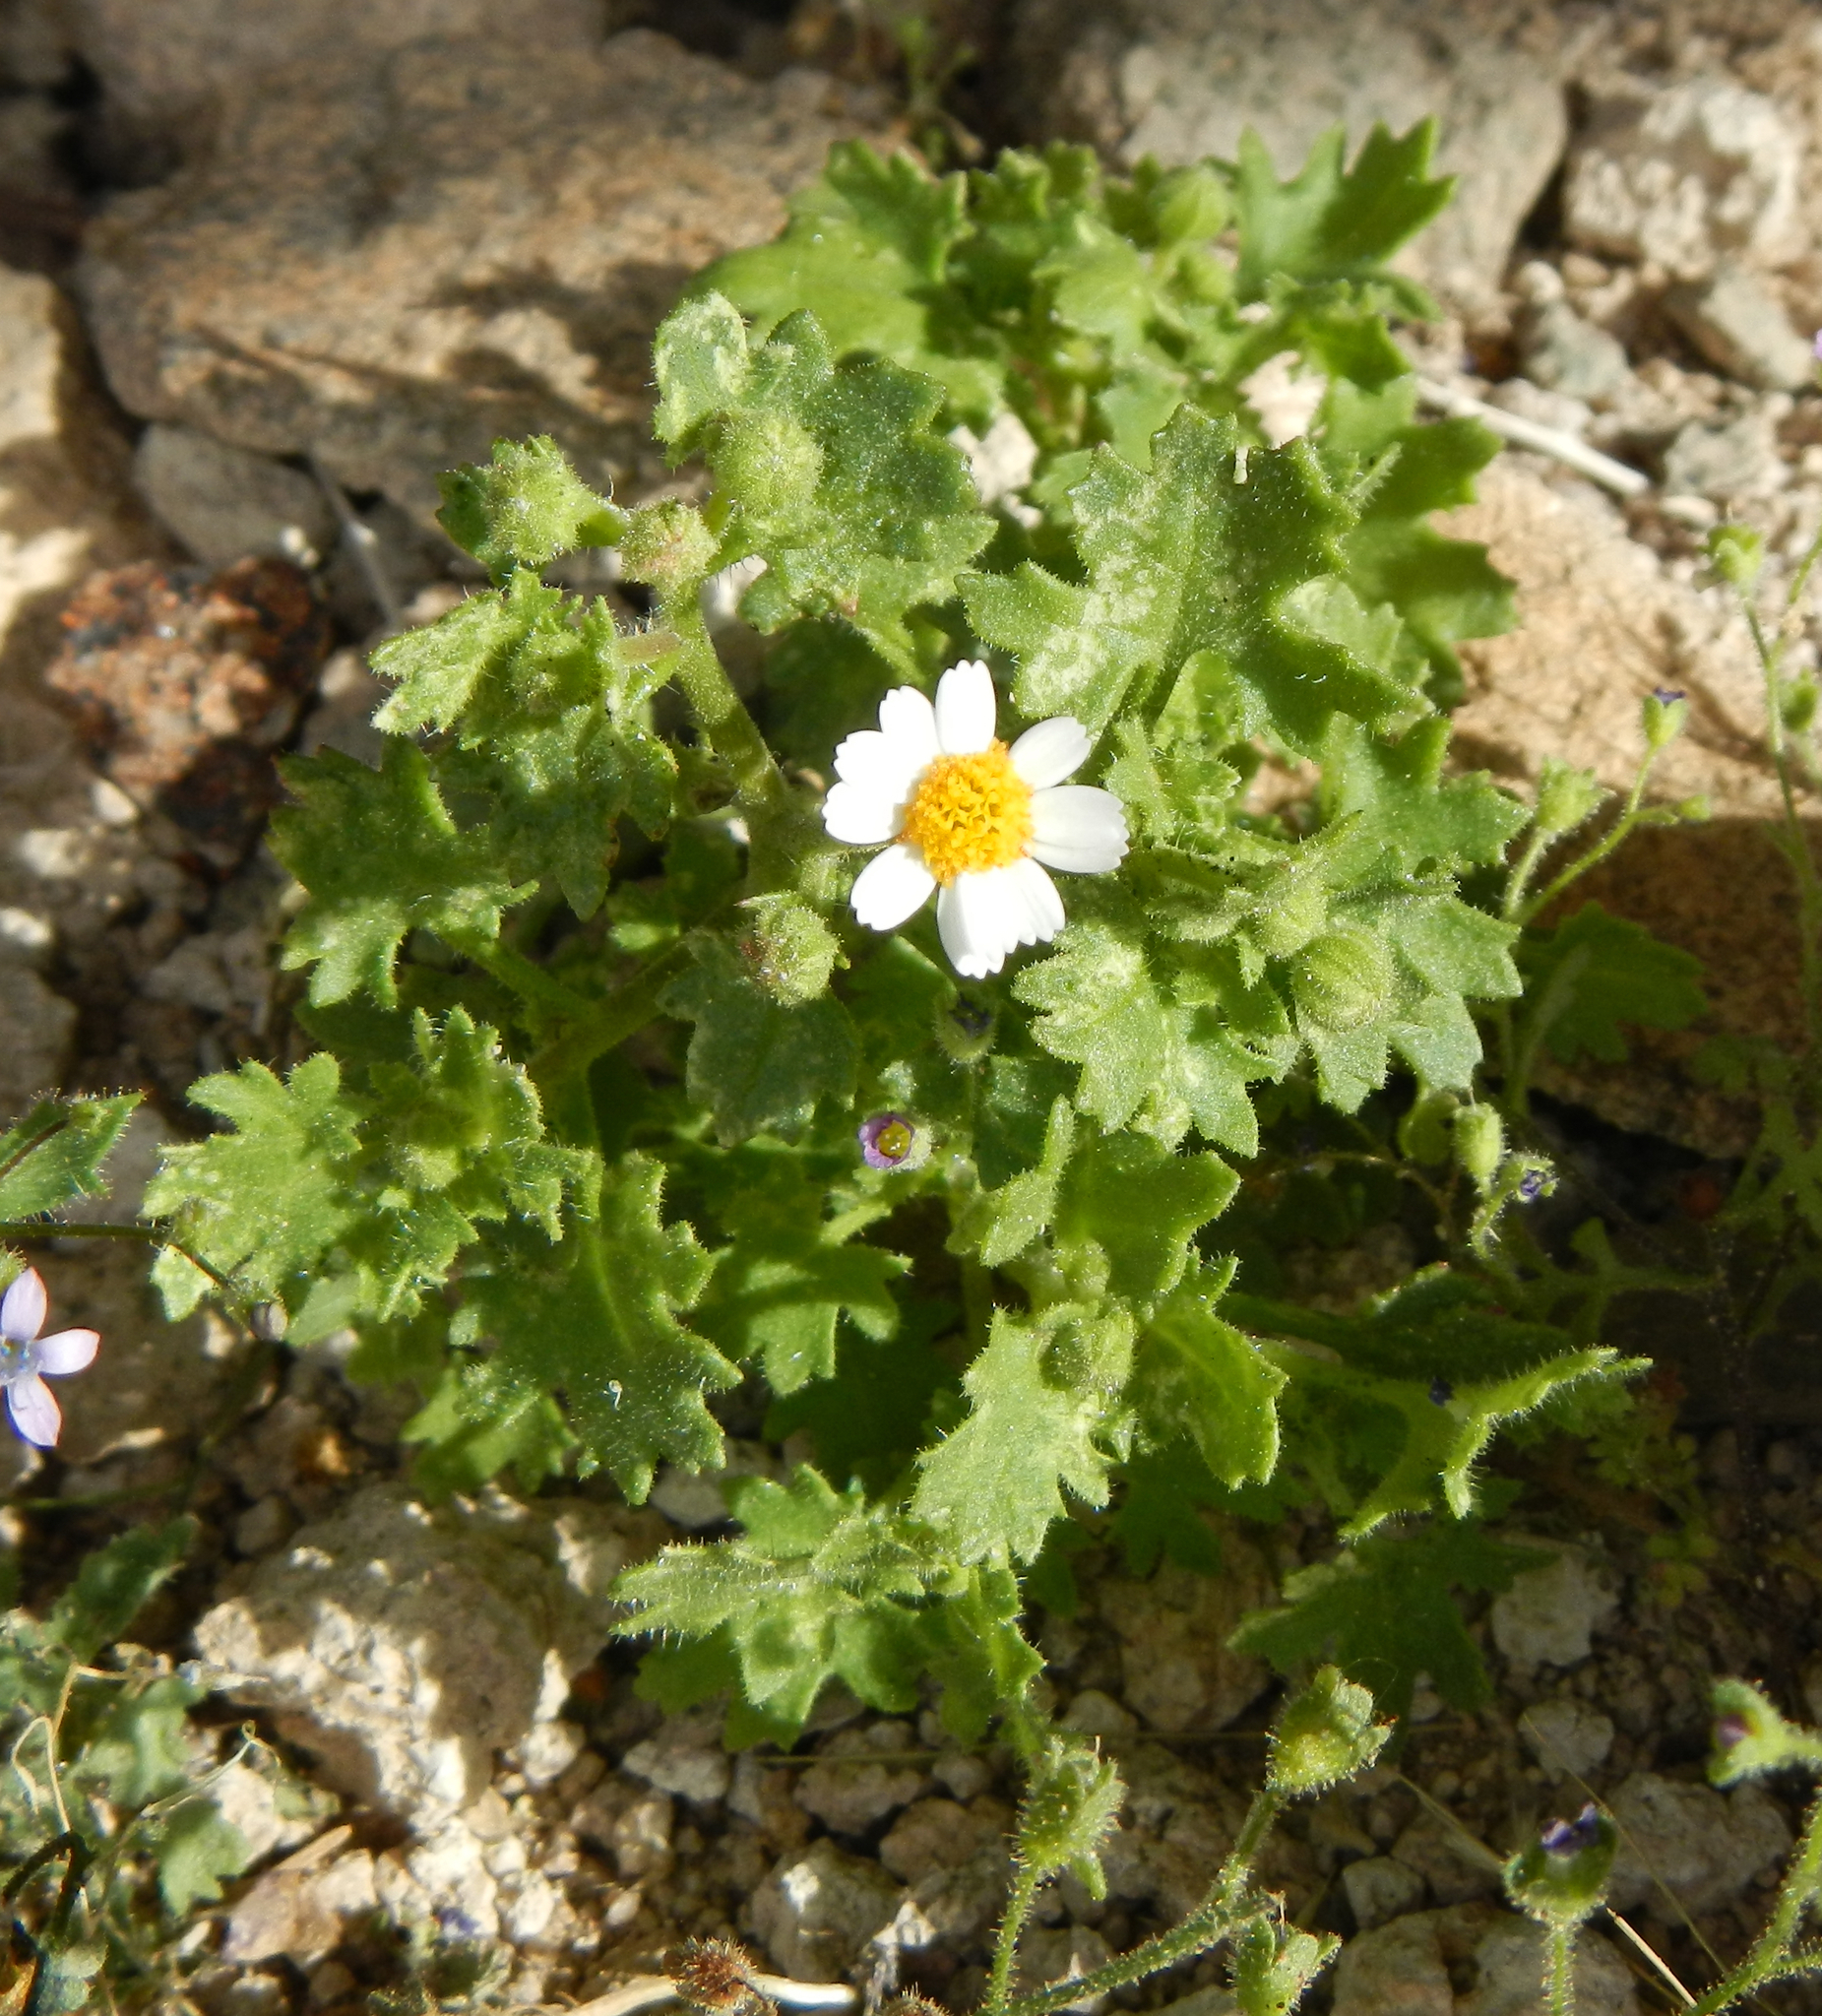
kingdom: Plantae
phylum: Tracheophyta
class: Magnoliopsida
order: Asterales
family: Asteraceae
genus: Laphamia
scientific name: Laphamia emoryi
